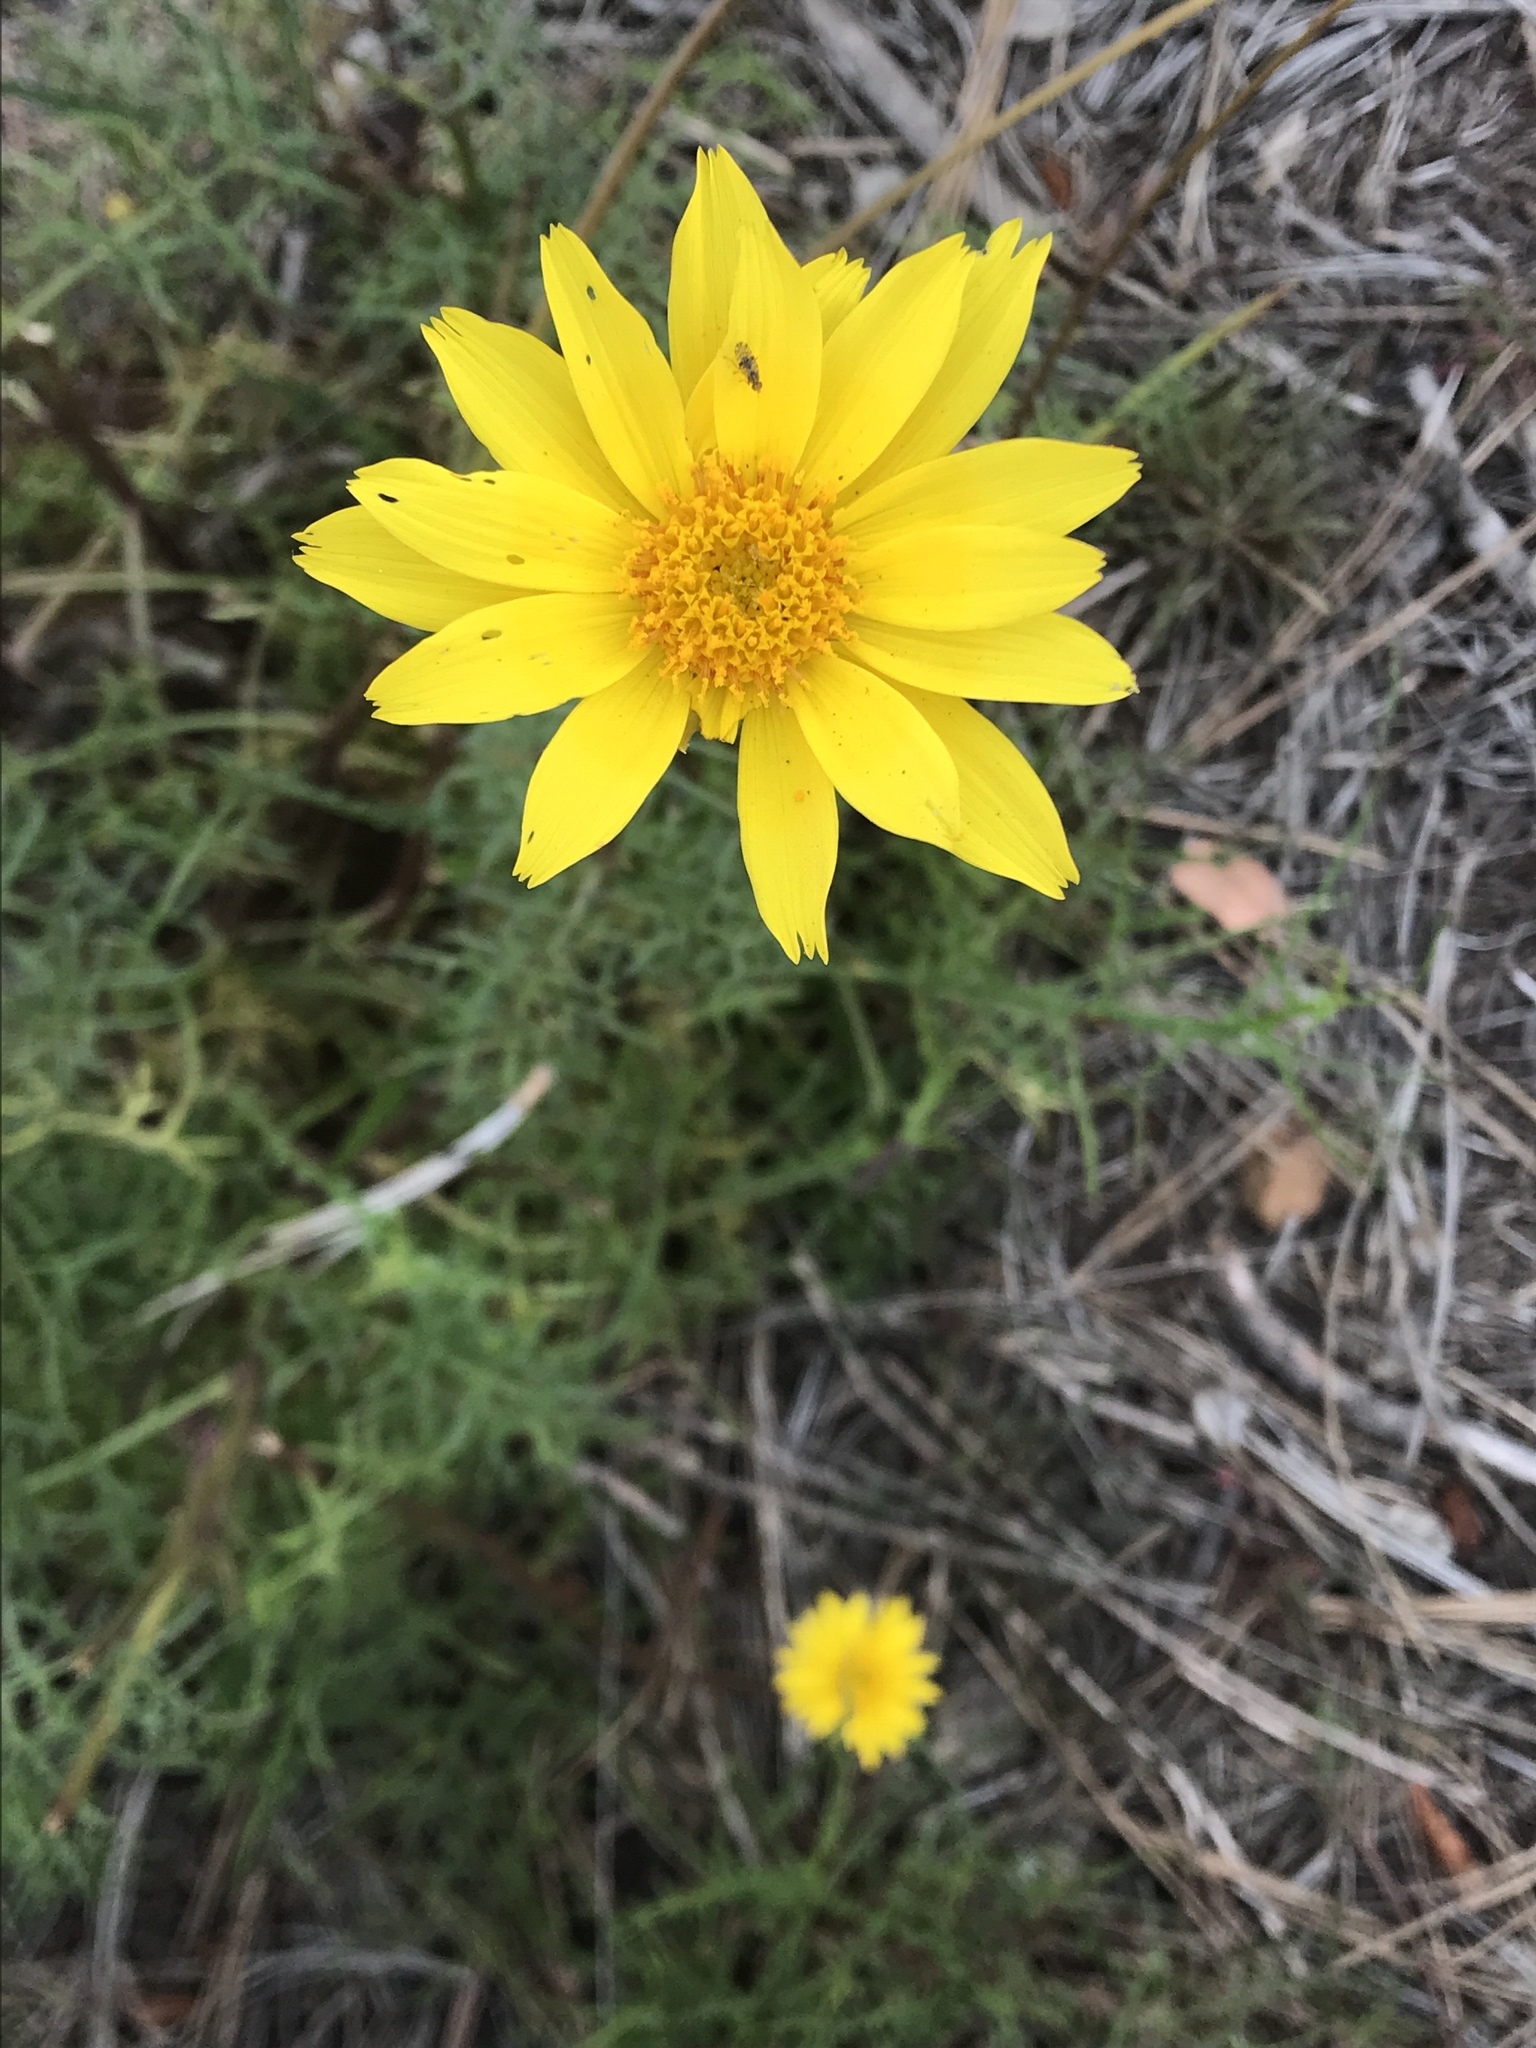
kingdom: Plantae
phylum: Tracheophyta
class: Magnoliopsida
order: Asterales
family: Asteraceae
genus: Coreopsis
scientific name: Coreopsis maritima
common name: Sea-dahlia
